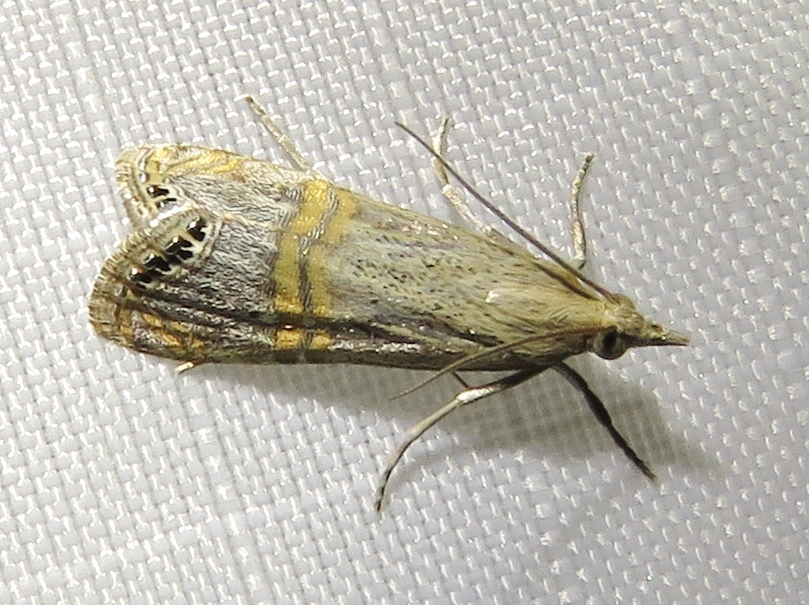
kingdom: Animalia
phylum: Arthropoda
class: Insecta
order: Lepidoptera
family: Crambidae
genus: Euchromius
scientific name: Euchromius ocellea
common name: Necklace veneer moth
